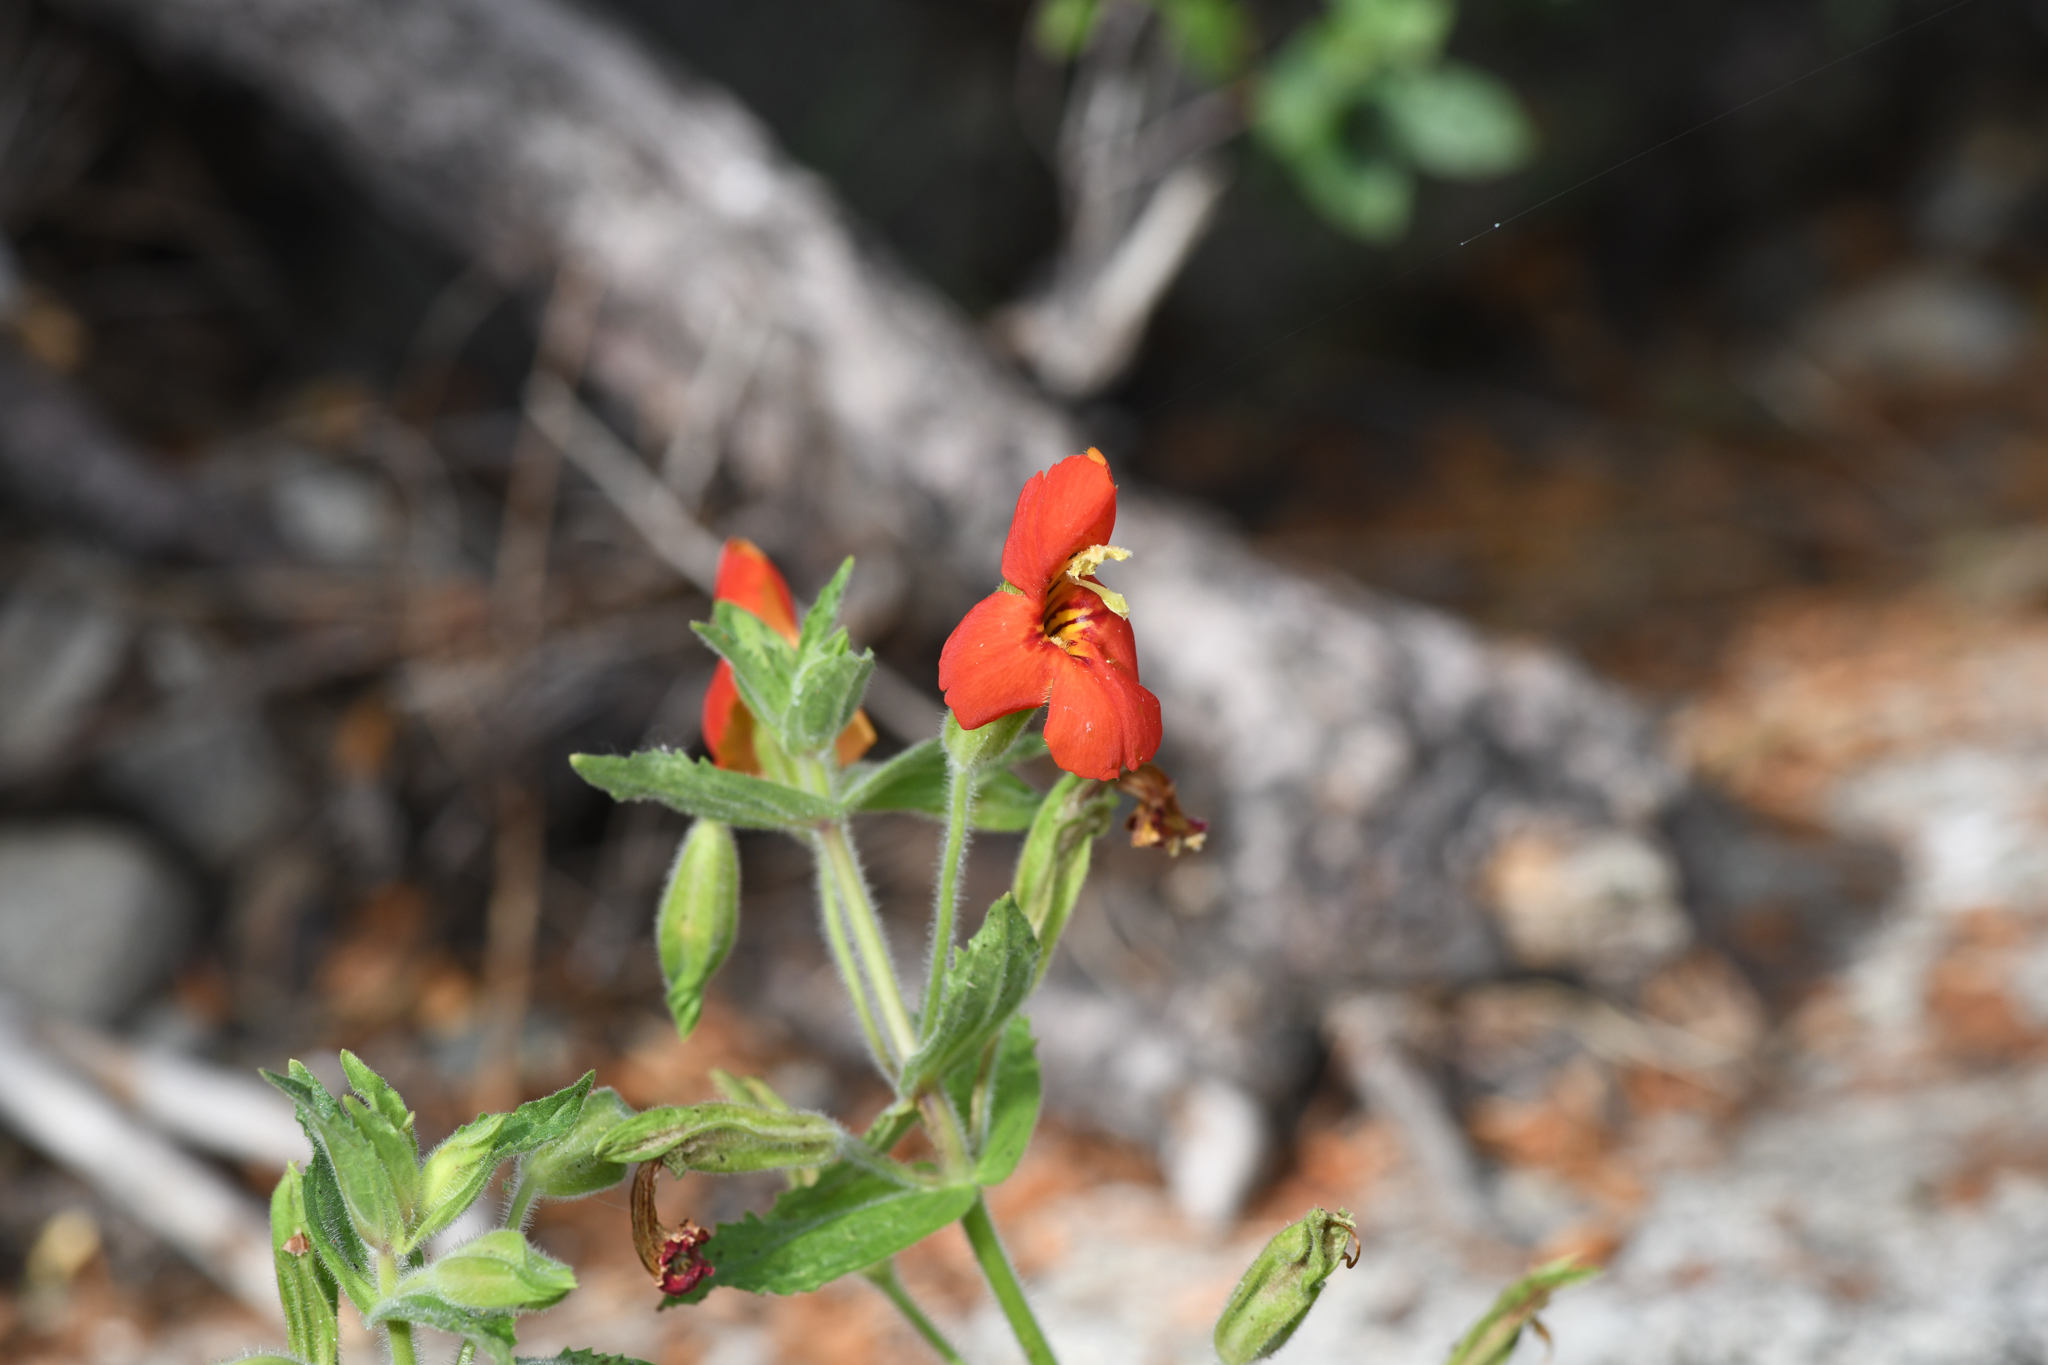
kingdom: Plantae
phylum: Tracheophyta
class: Magnoliopsida
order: Lamiales
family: Phrymaceae
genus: Erythranthe
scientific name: Erythranthe cardinalis
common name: Scarlet monkey-flower
